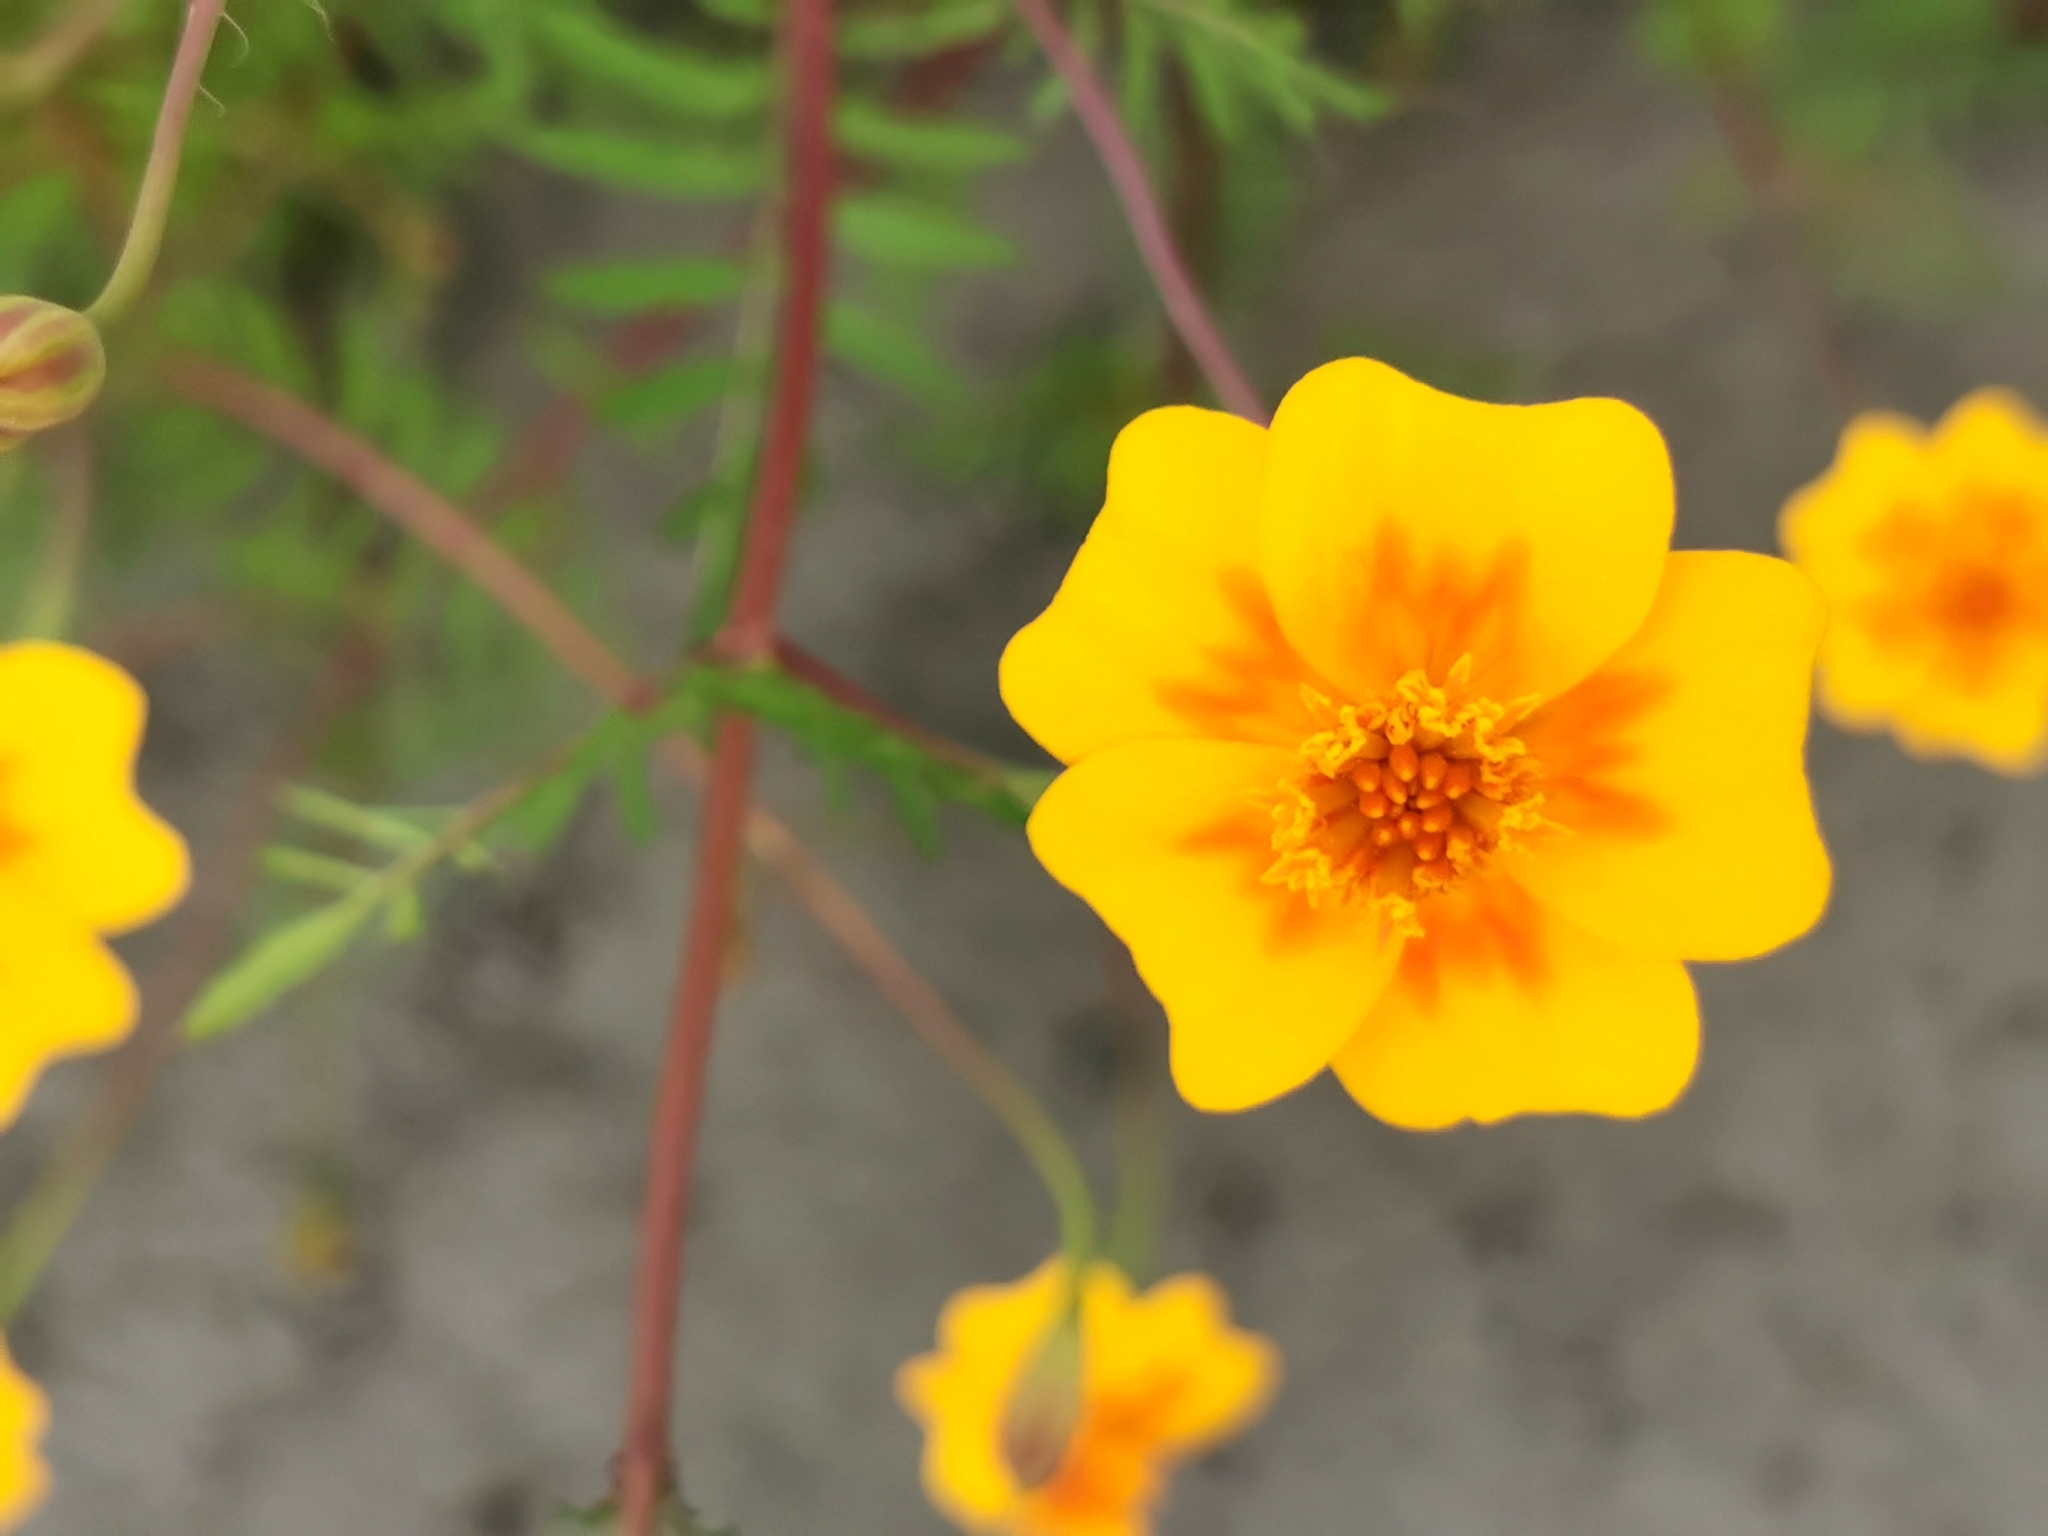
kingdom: Plantae
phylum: Tracheophyta
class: Magnoliopsida
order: Asterales
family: Asteraceae
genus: Tagetes
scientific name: Tagetes lunulata
